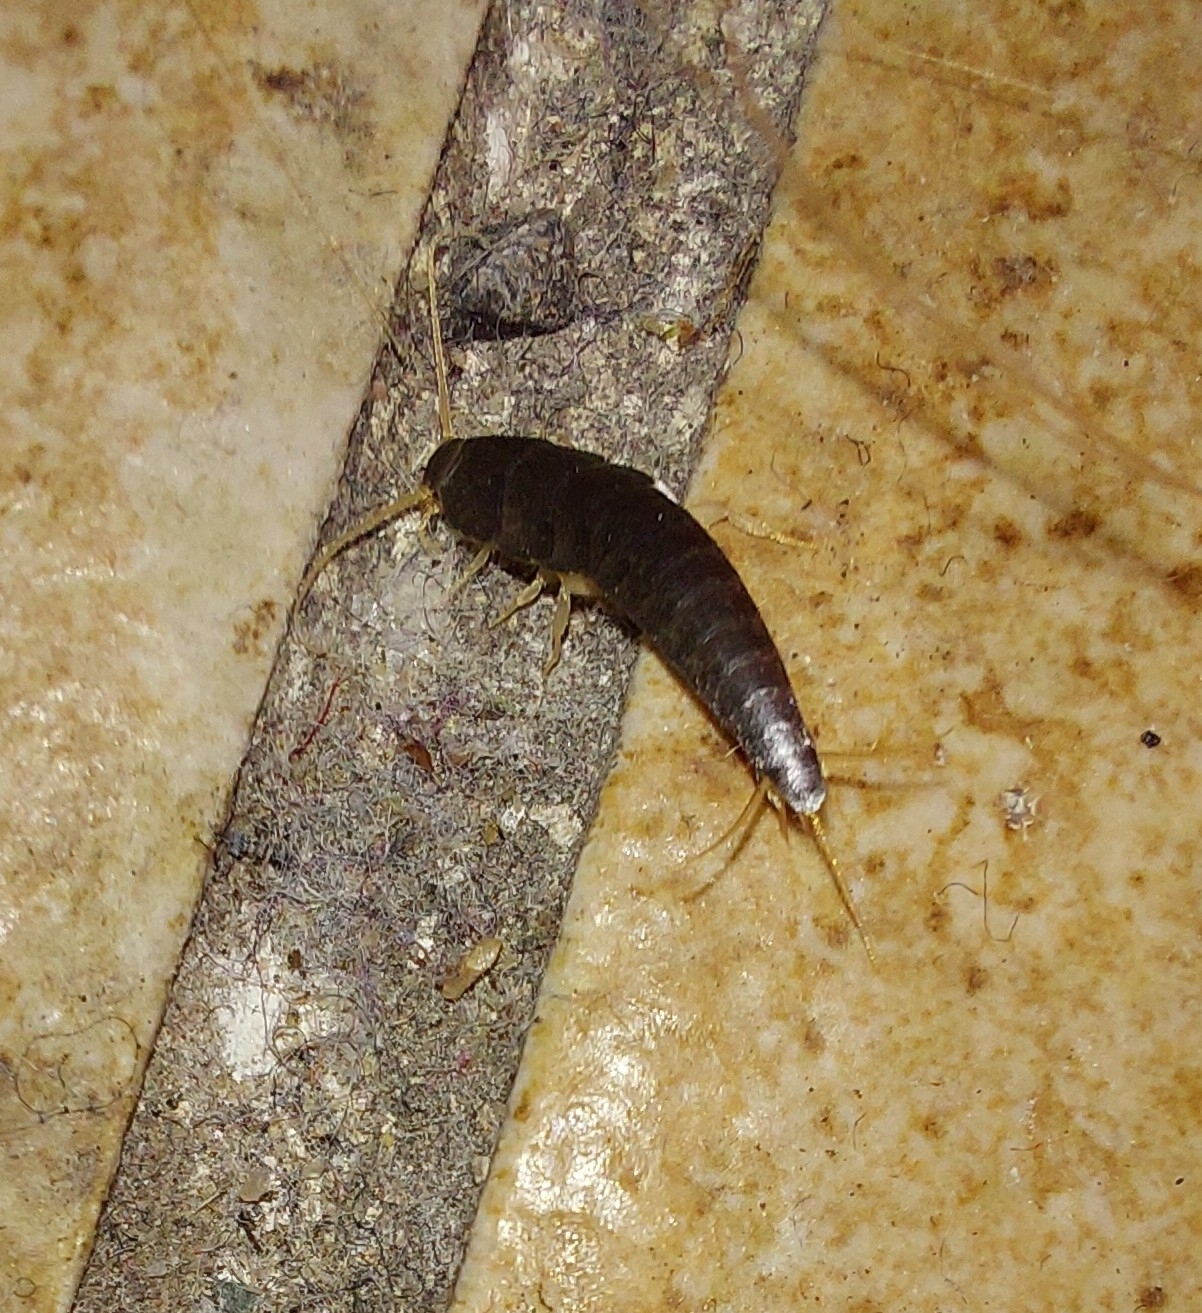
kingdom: Animalia
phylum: Arthropoda
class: Insecta
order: Zygentoma
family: Lepismatidae
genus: Lepisma
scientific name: Lepisma saccharinum
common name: Silverfish
